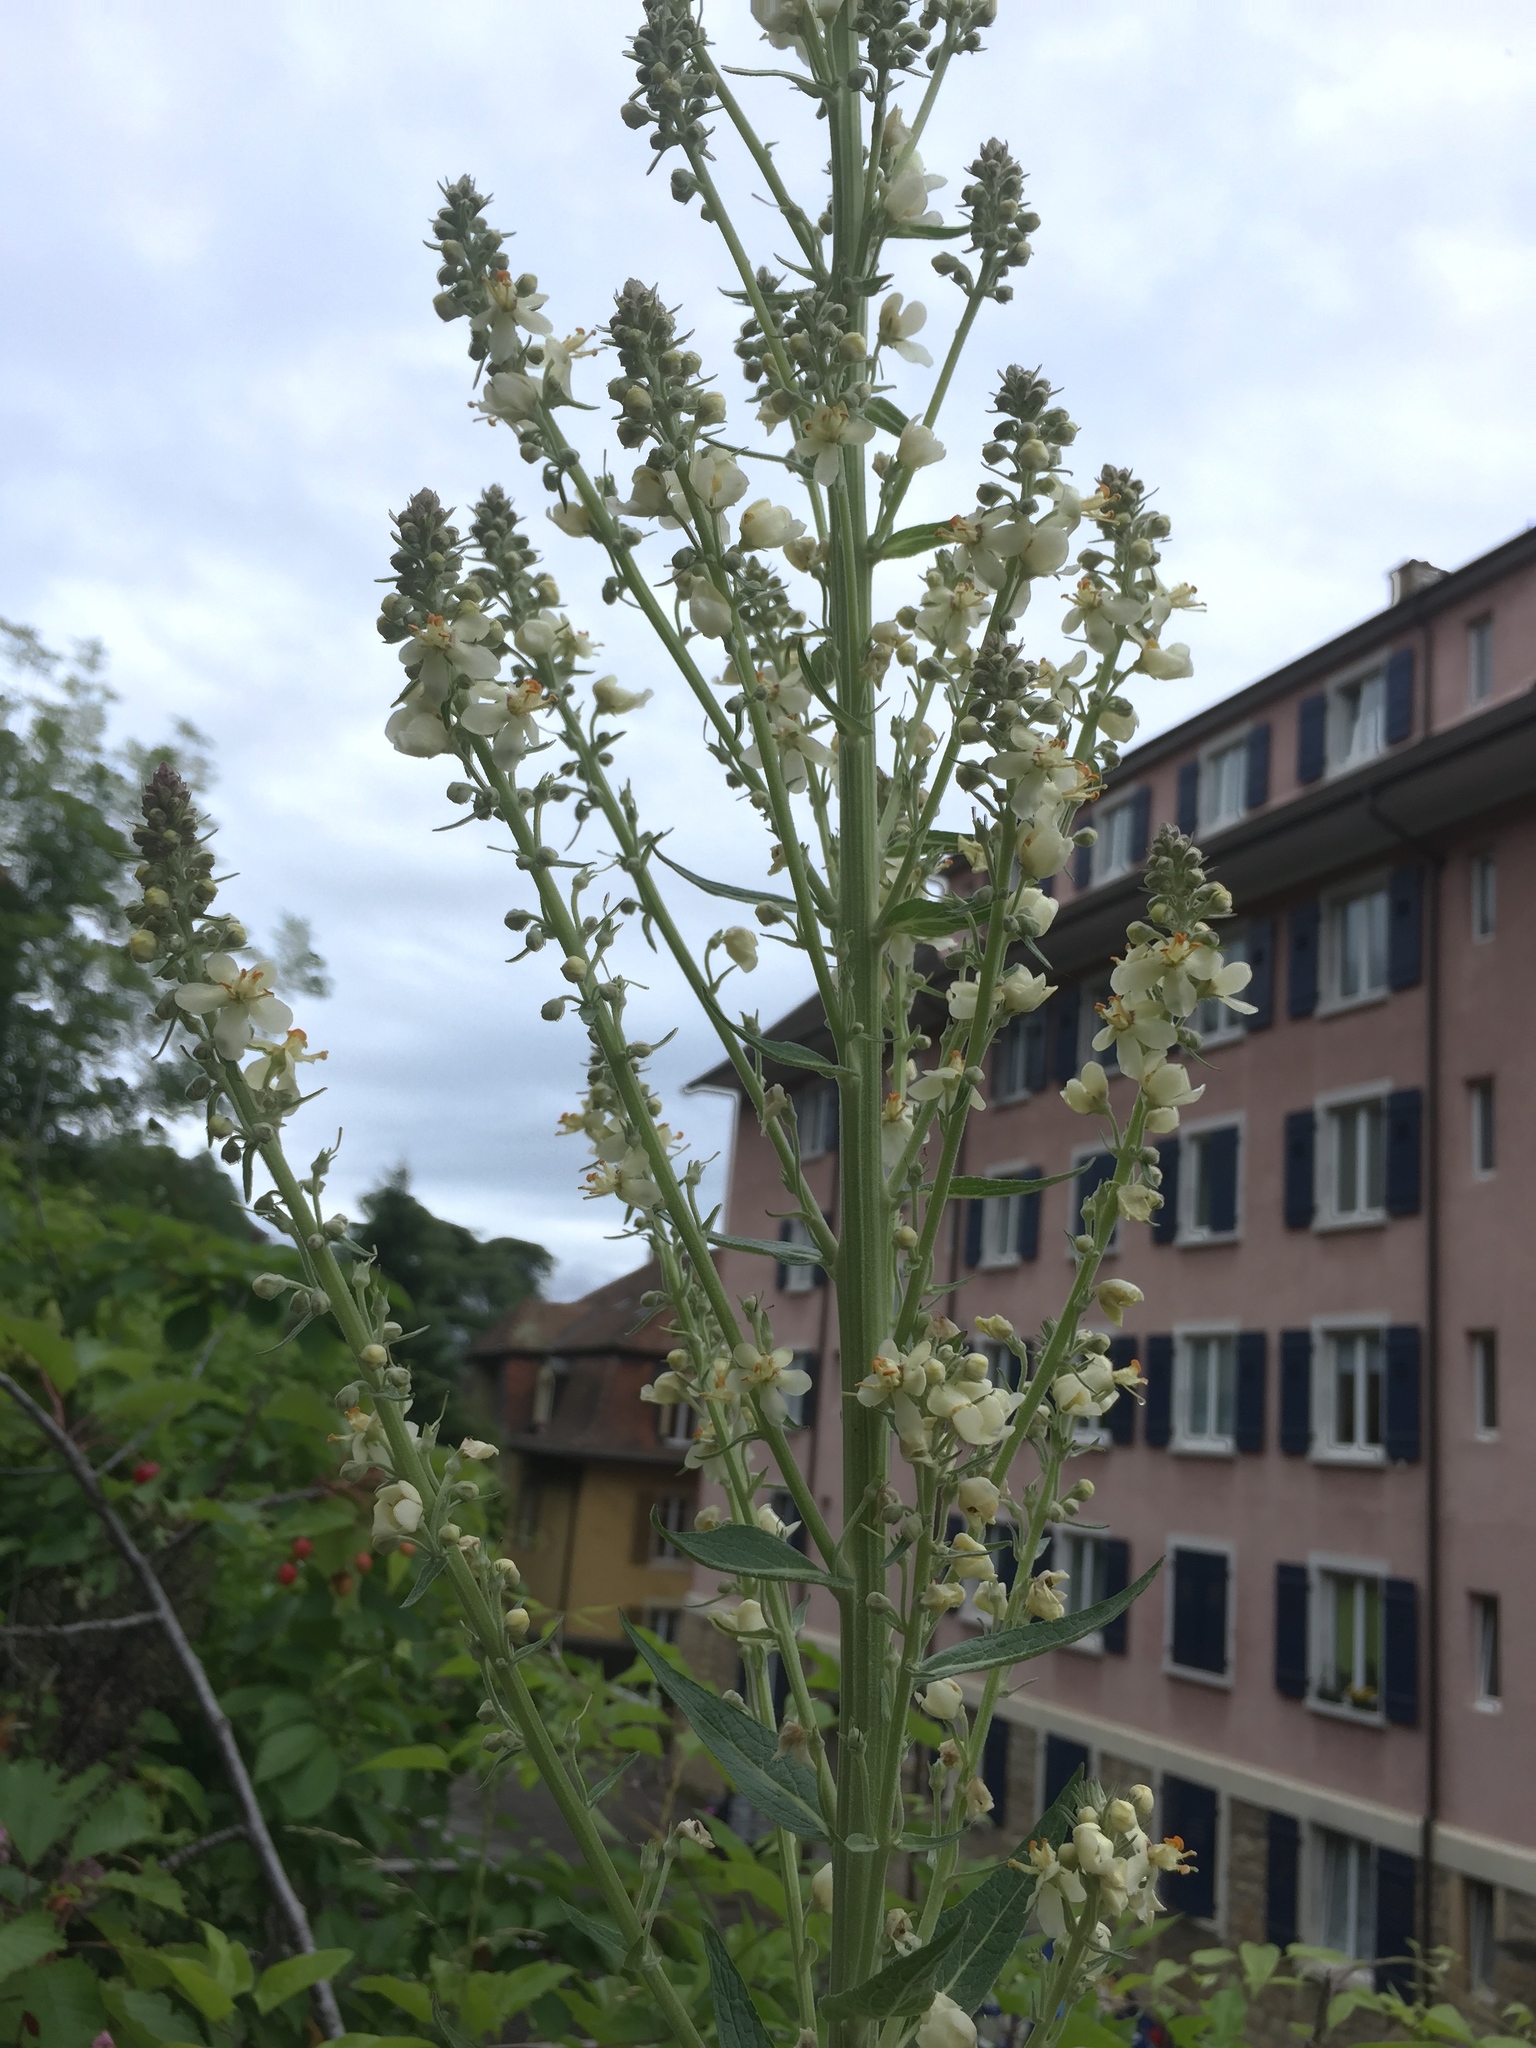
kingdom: Plantae
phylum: Tracheophyta
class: Magnoliopsida
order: Lamiales
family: Scrophulariaceae
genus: Verbascum
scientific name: Verbascum lychnitis
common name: White mullein
